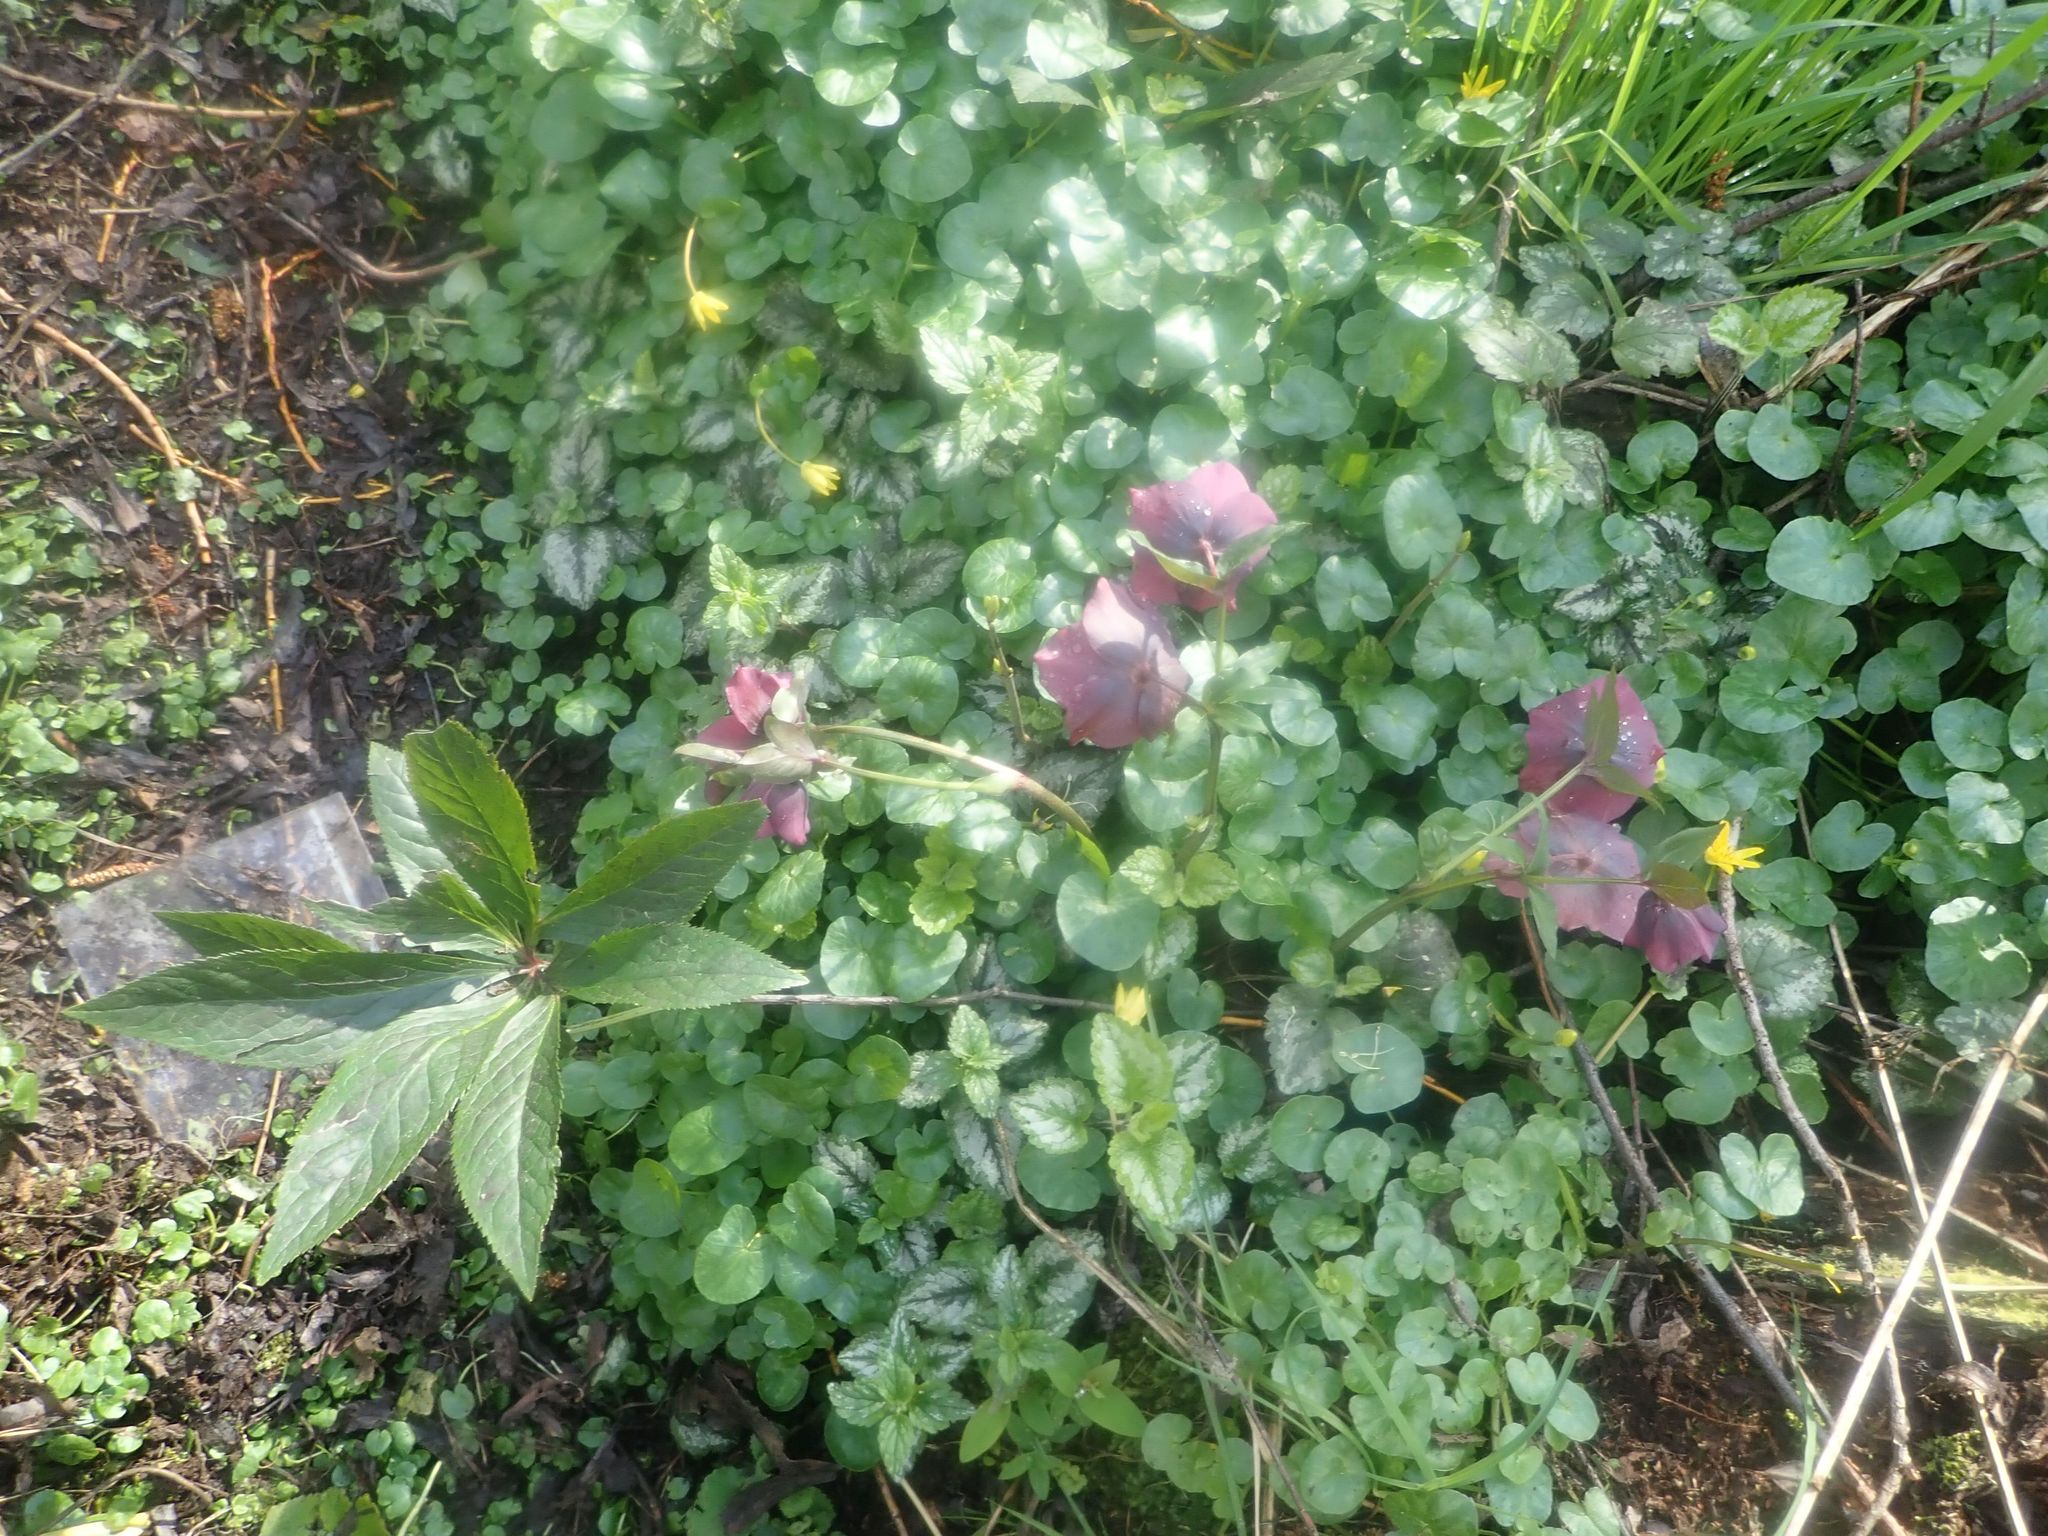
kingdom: Plantae
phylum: Tracheophyta
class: Magnoliopsida
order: Ranunculales
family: Ranunculaceae
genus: Helleborus
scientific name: Helleborus orientalis
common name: Lenten-rose
